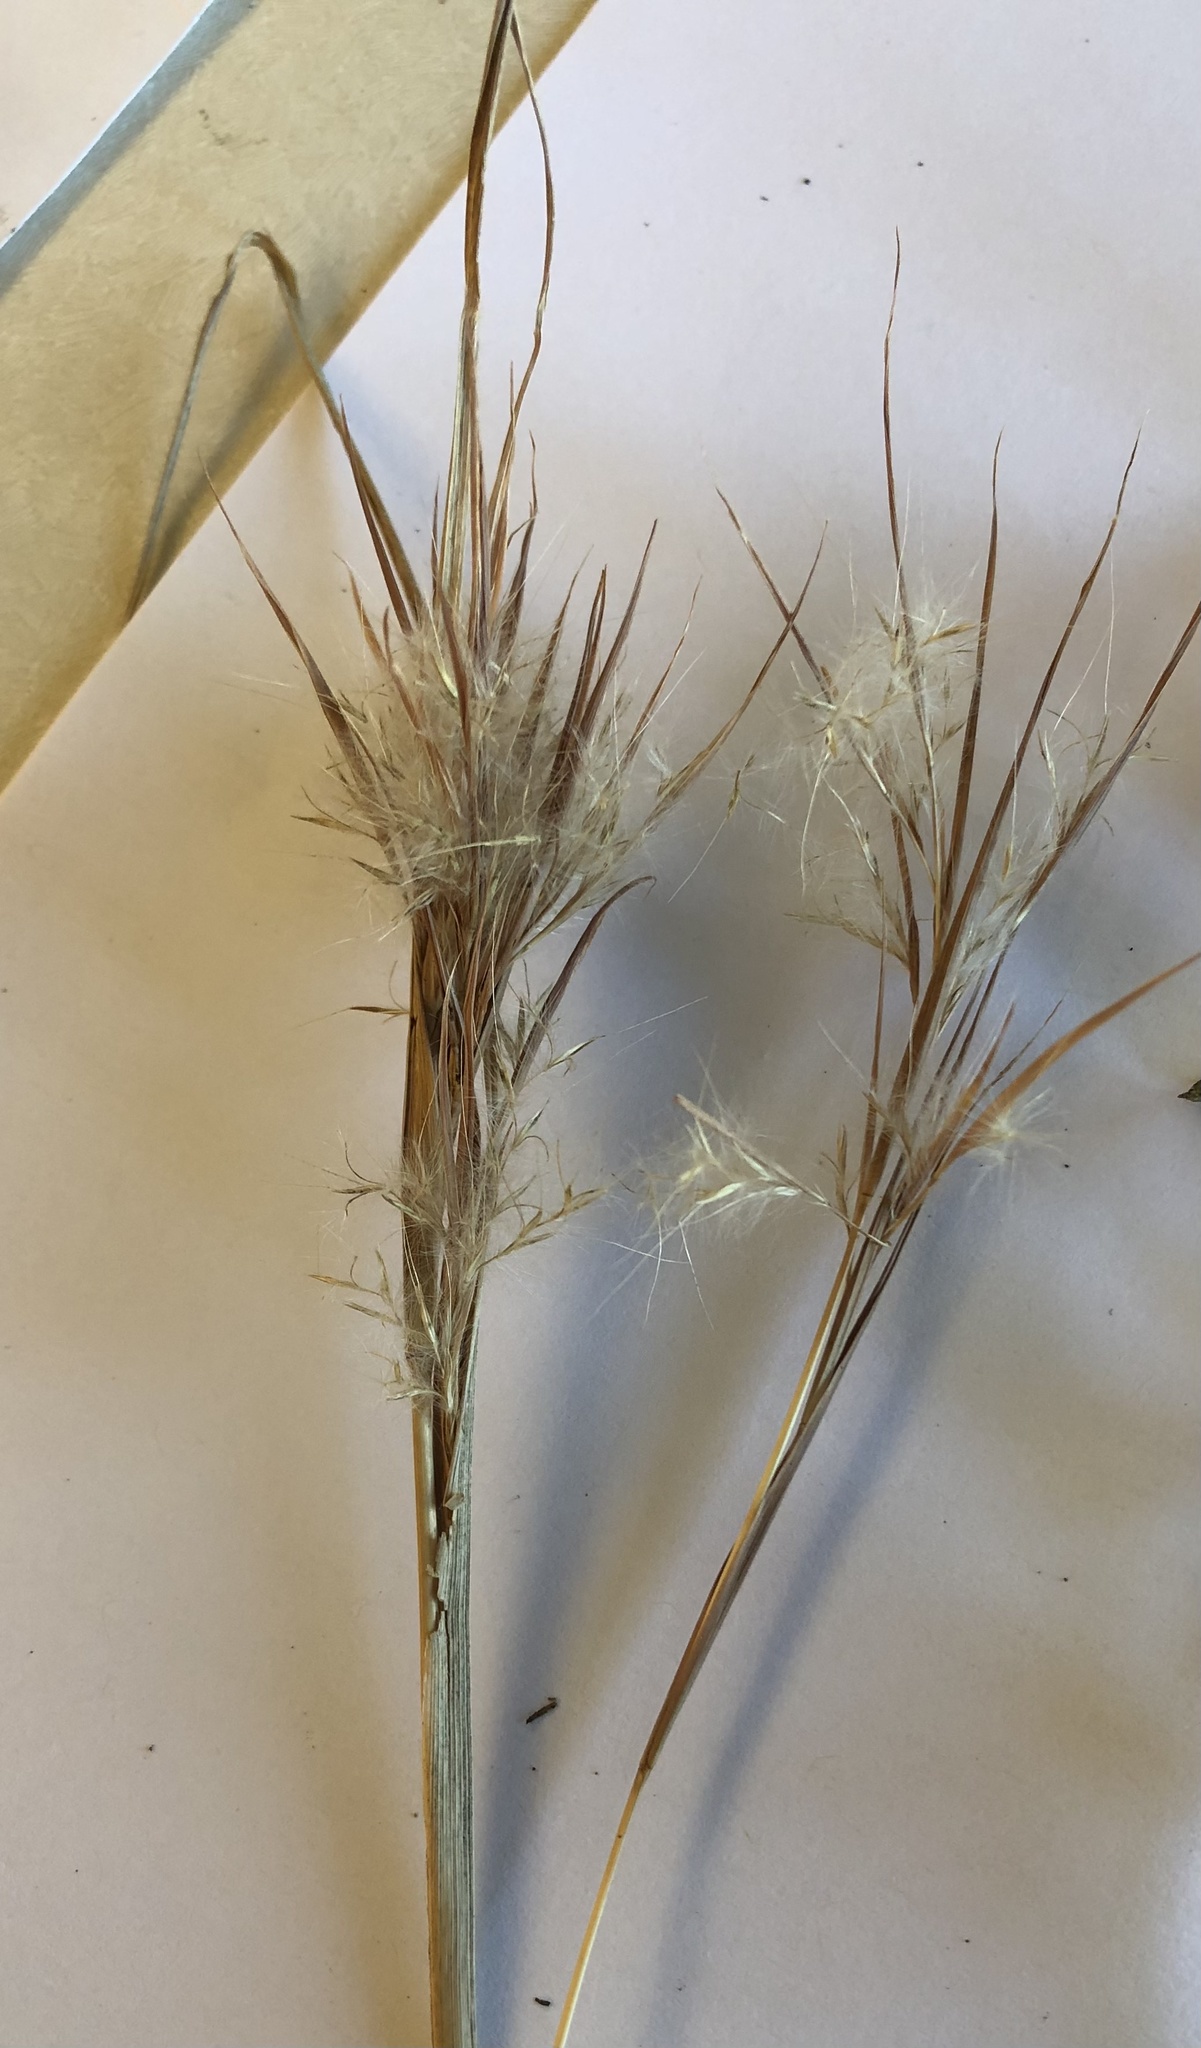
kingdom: Plantae
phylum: Tracheophyta
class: Liliopsida
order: Poales
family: Poaceae
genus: Andropogon
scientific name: Andropogon tenuispatheus
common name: Bushy bluestem
